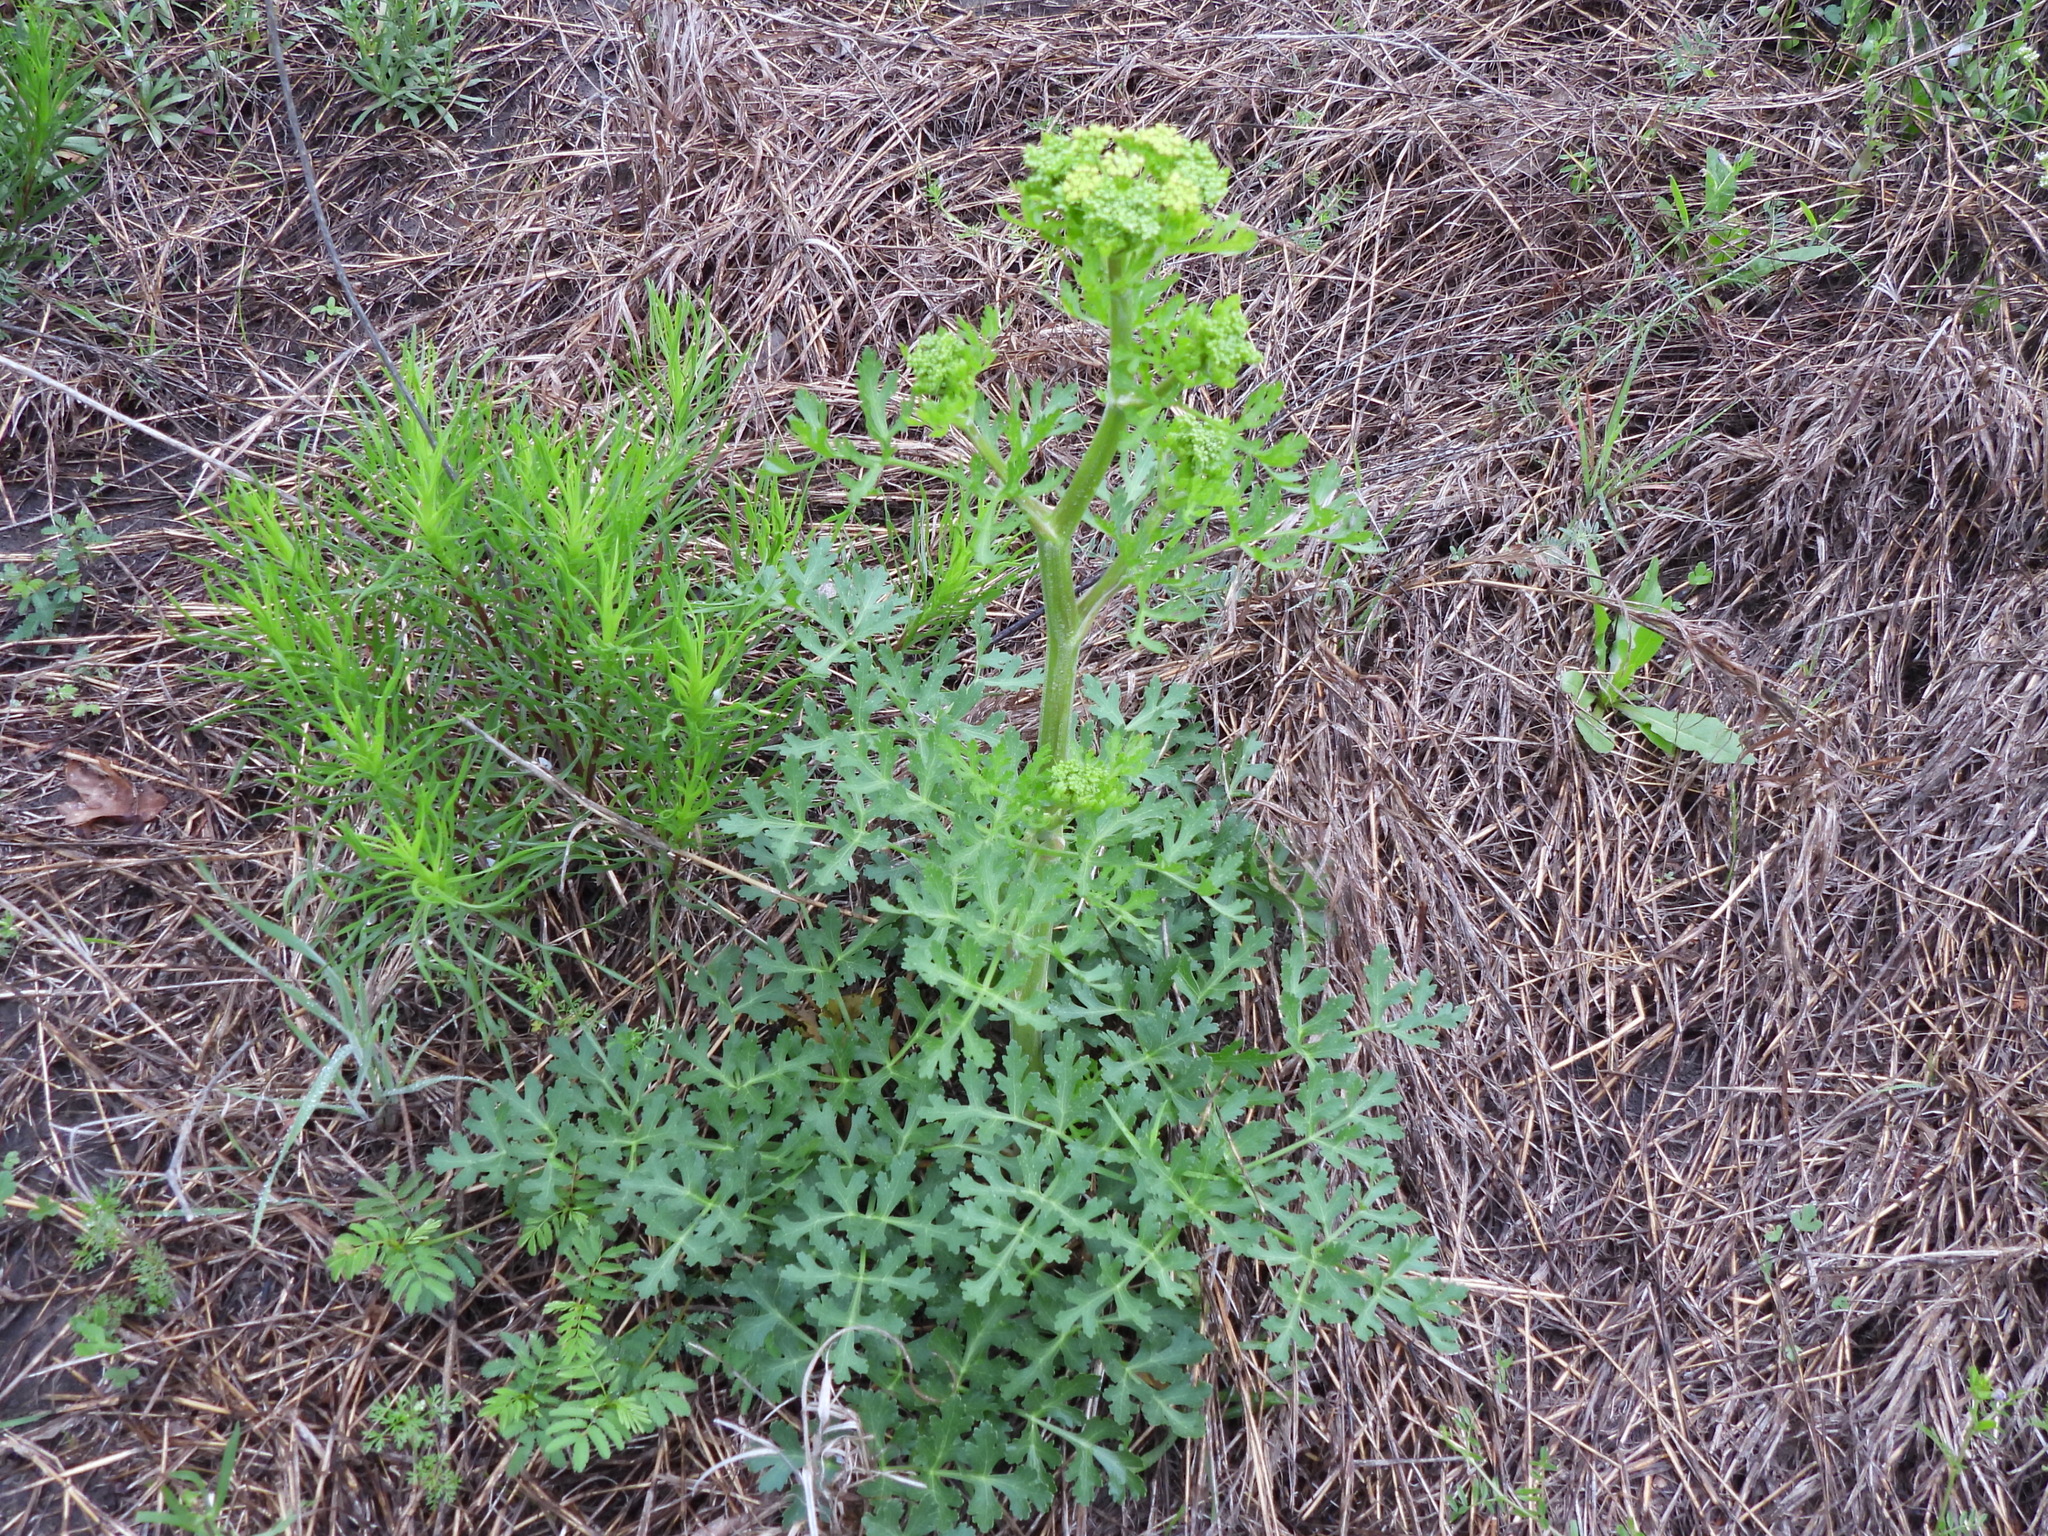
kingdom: Plantae
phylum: Tracheophyta
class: Magnoliopsida
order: Apiales
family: Apiaceae
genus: Polytaenia
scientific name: Polytaenia texana
